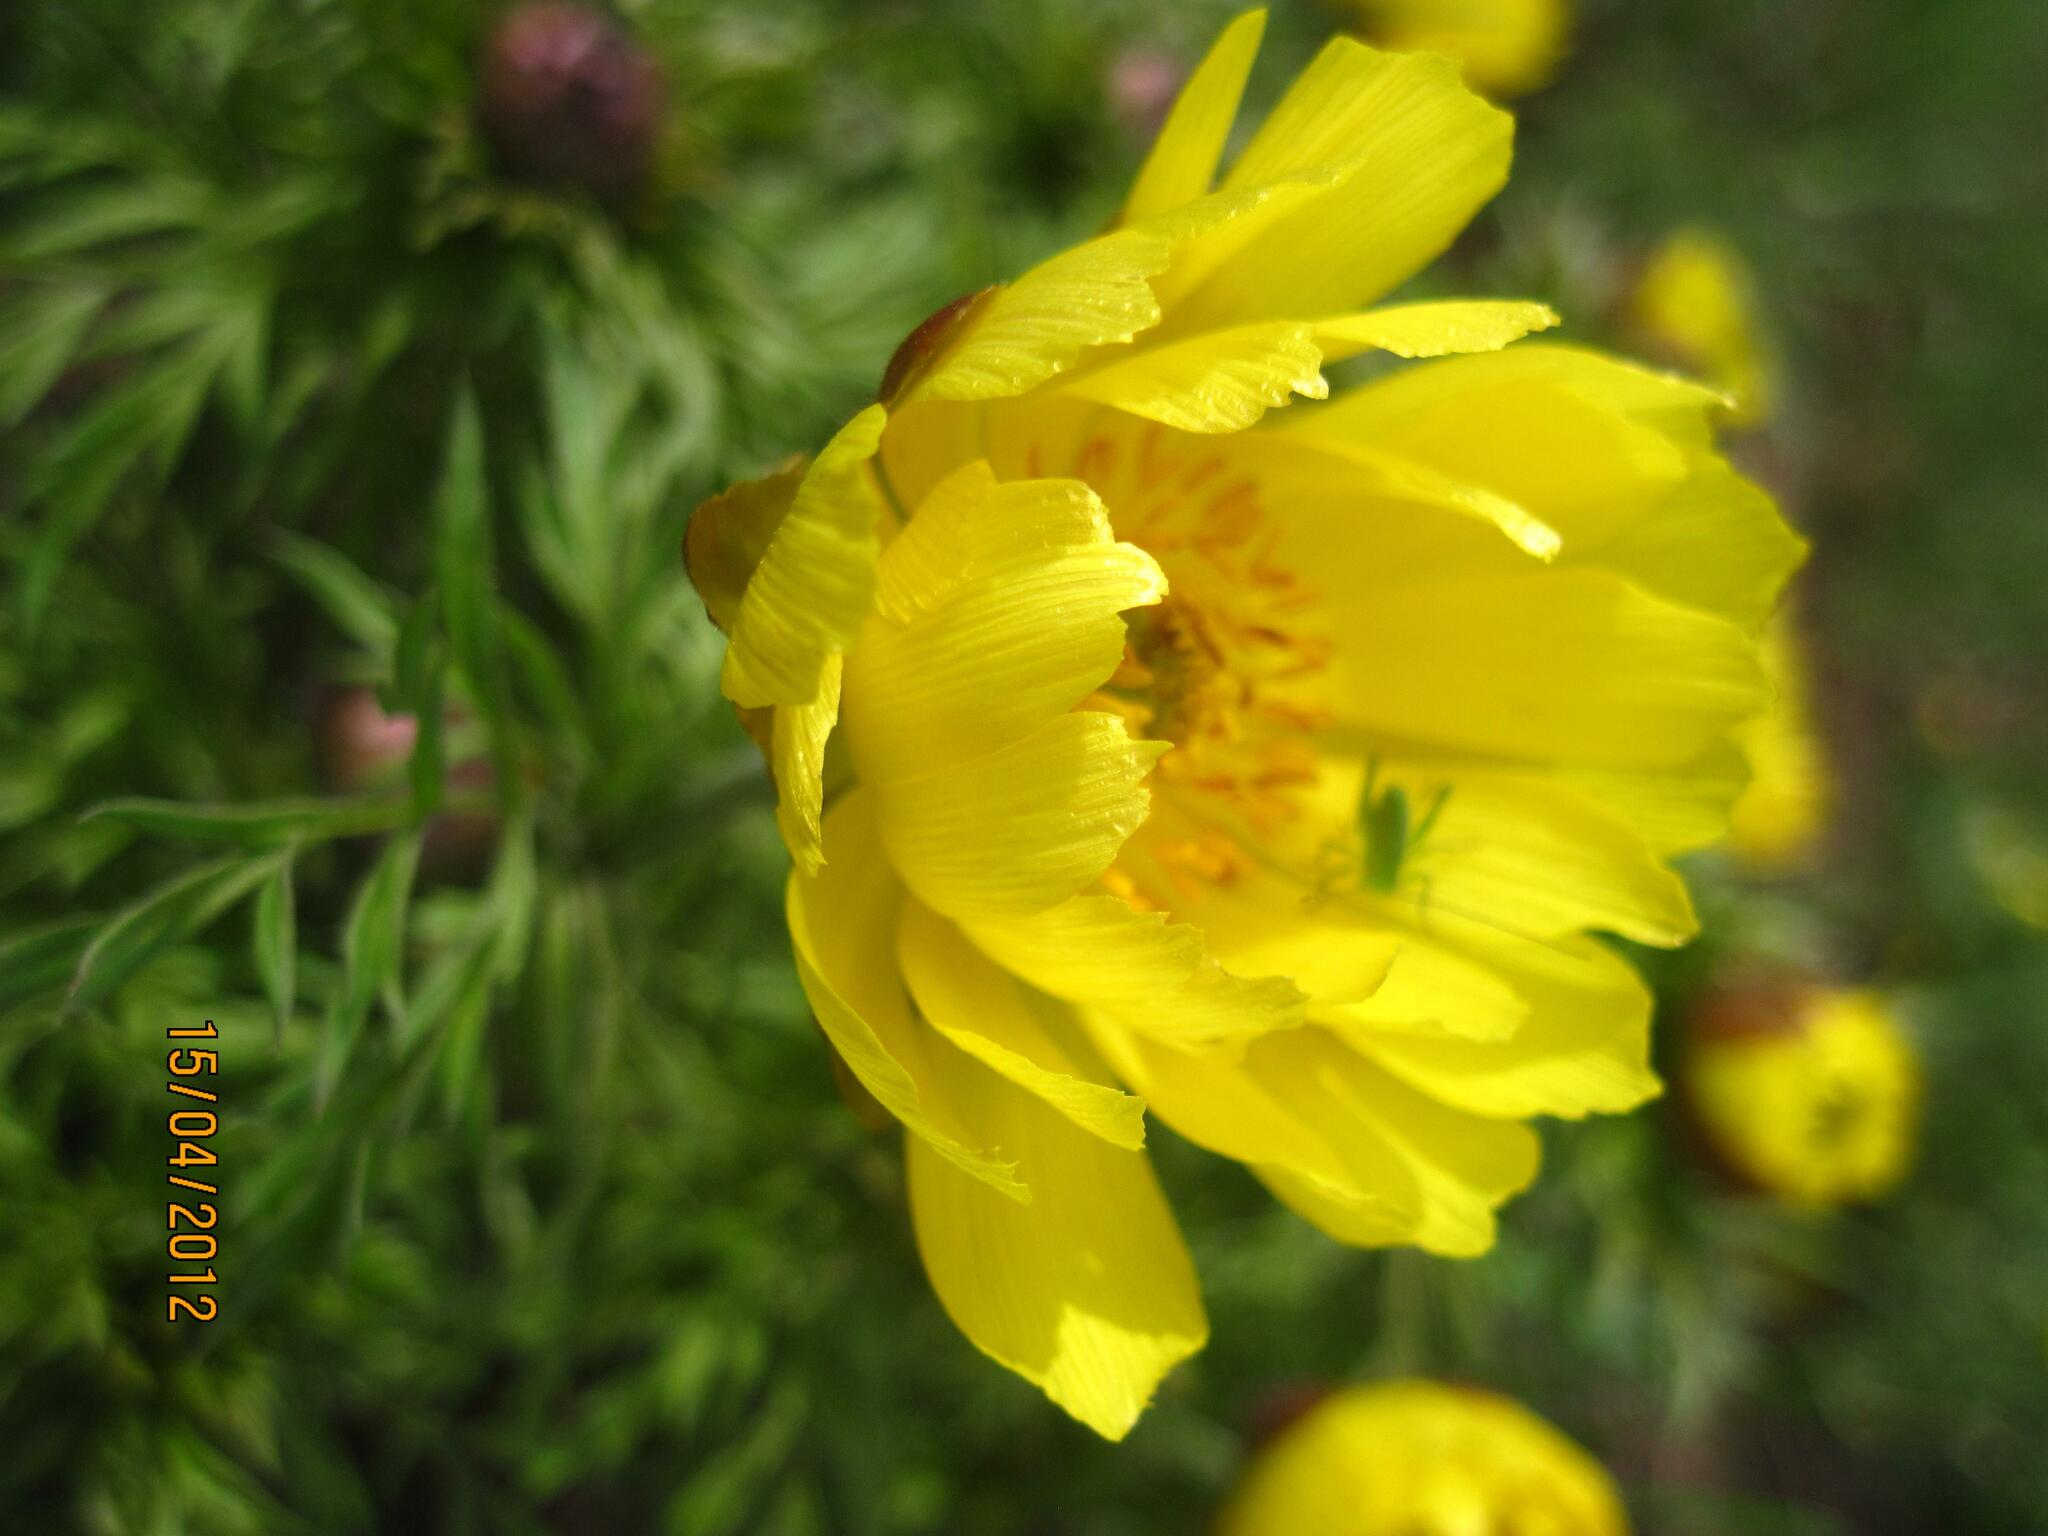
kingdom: Plantae
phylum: Tracheophyta
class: Magnoliopsida
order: Ranunculales
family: Ranunculaceae
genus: Adonis
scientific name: Adonis volgensis
